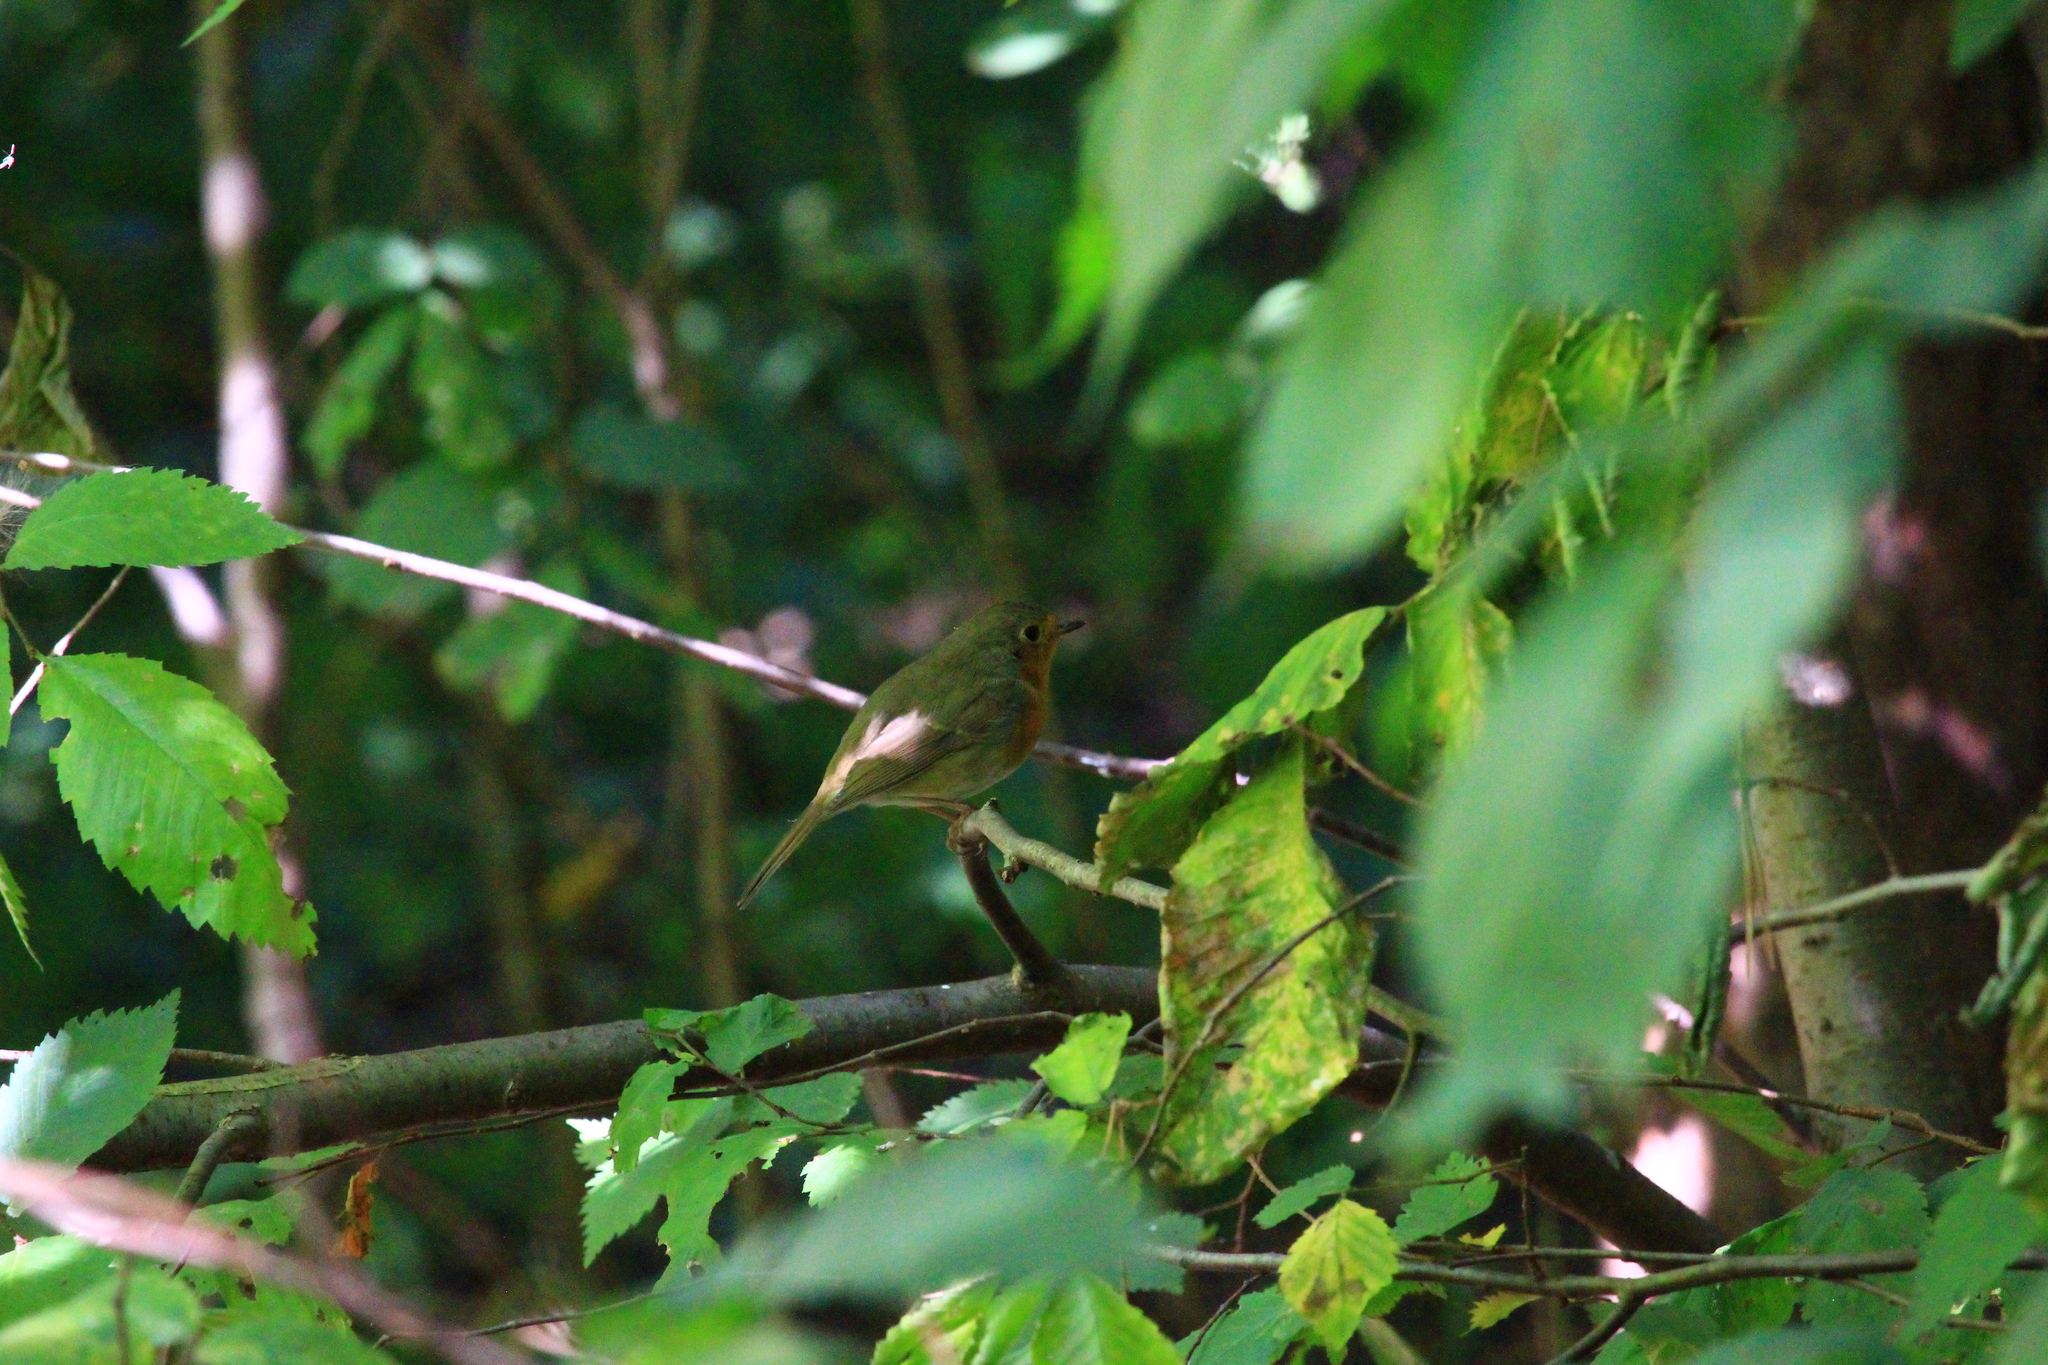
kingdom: Animalia
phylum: Chordata
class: Aves
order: Passeriformes
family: Muscicapidae
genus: Erithacus
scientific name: Erithacus rubecula
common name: European robin
